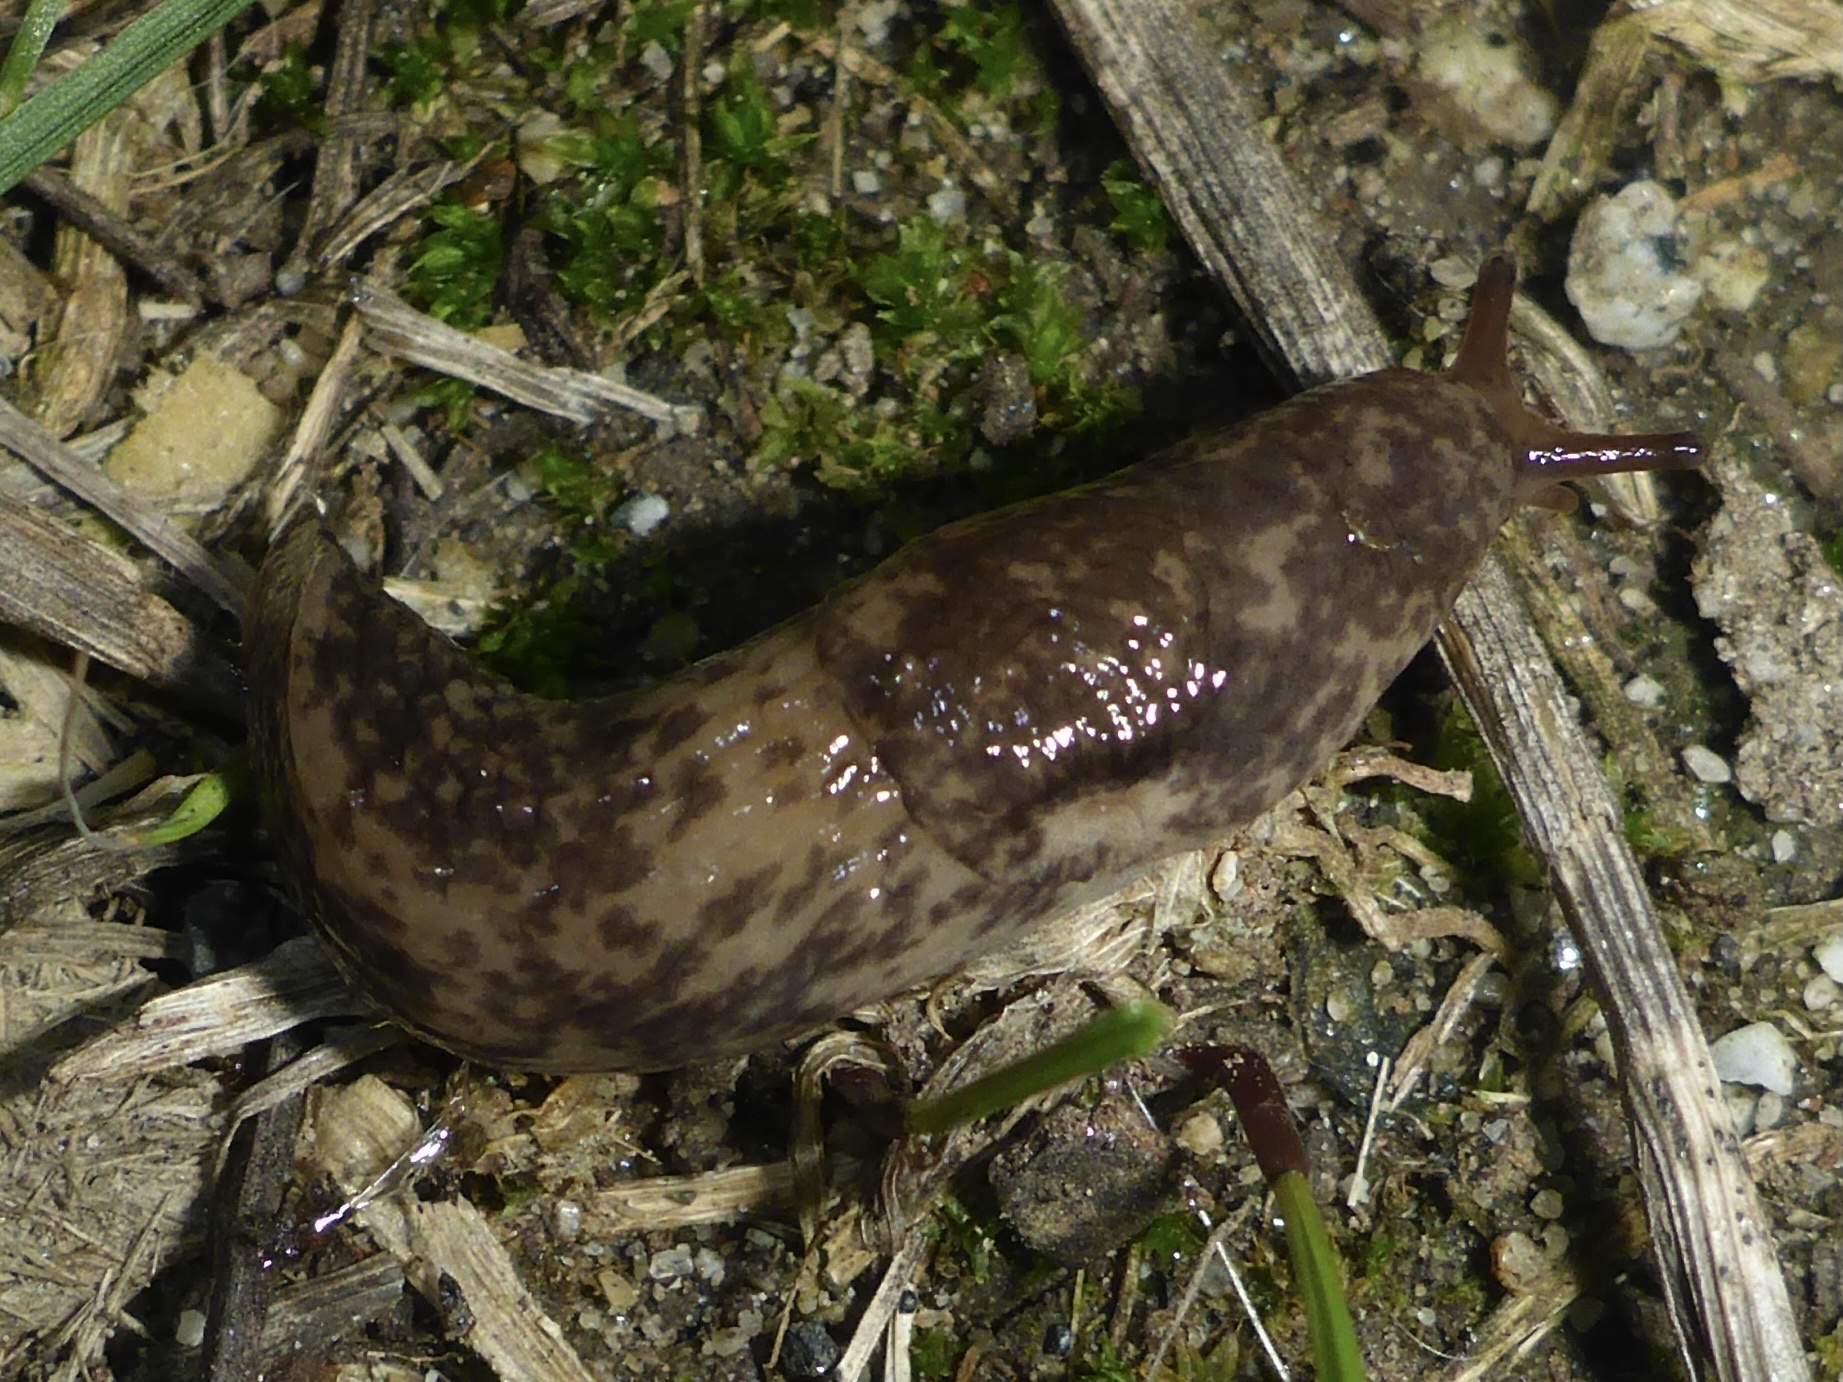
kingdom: Animalia
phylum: Mollusca
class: Gastropoda
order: Stylommatophora
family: Agriolimacidae
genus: Deroceras
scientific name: Deroceras reticulatum
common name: Gray field slug
